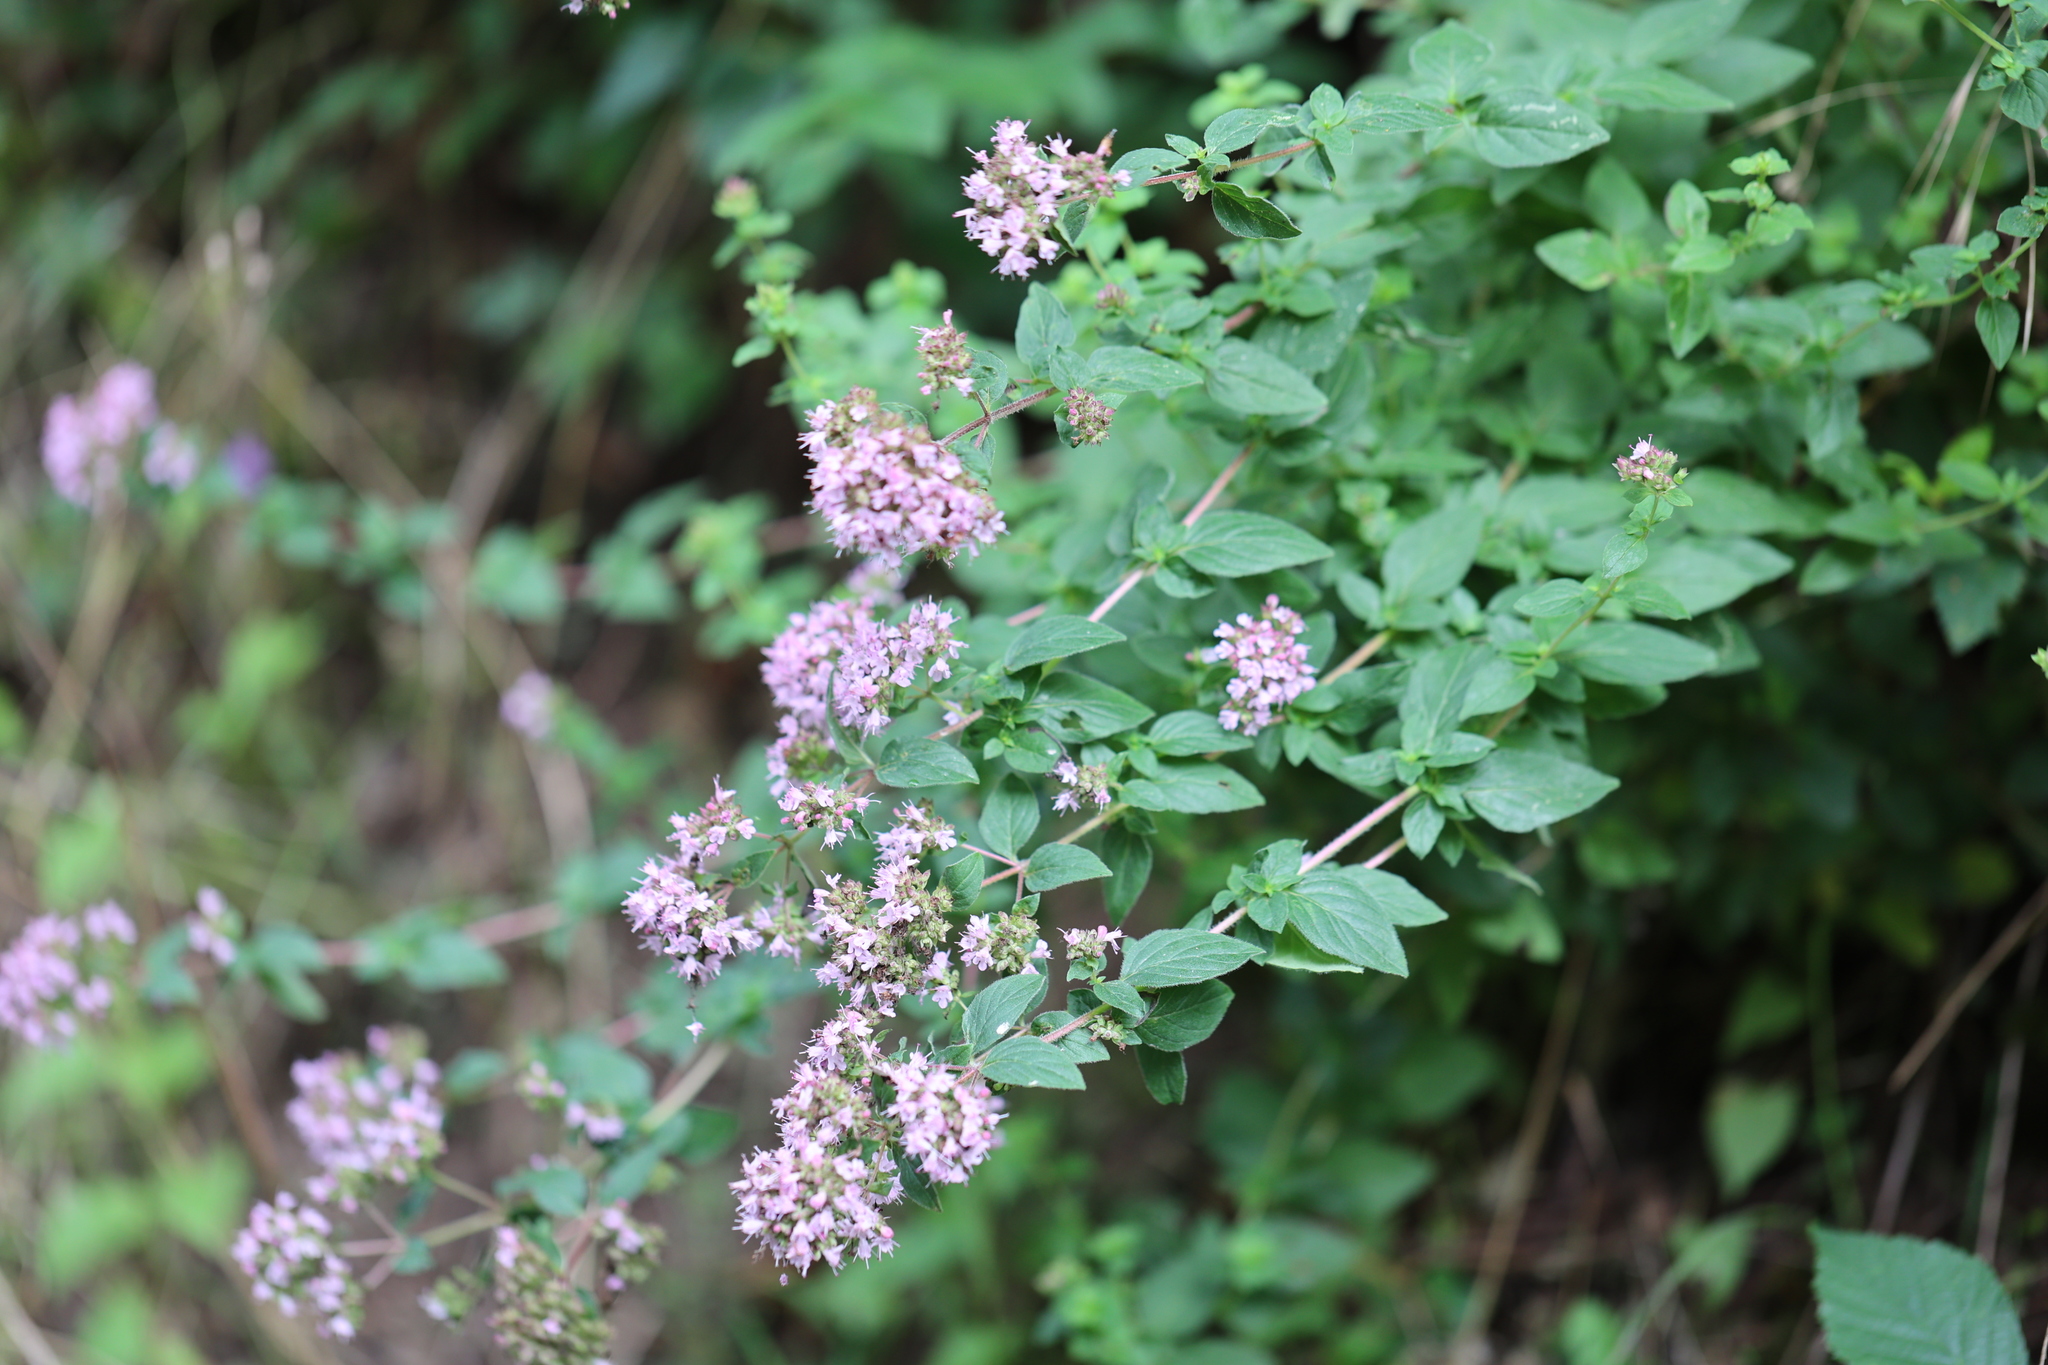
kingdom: Plantae
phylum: Tracheophyta
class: Magnoliopsida
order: Lamiales
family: Lamiaceae
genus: Origanum
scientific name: Origanum vulgare
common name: Wild marjoram
